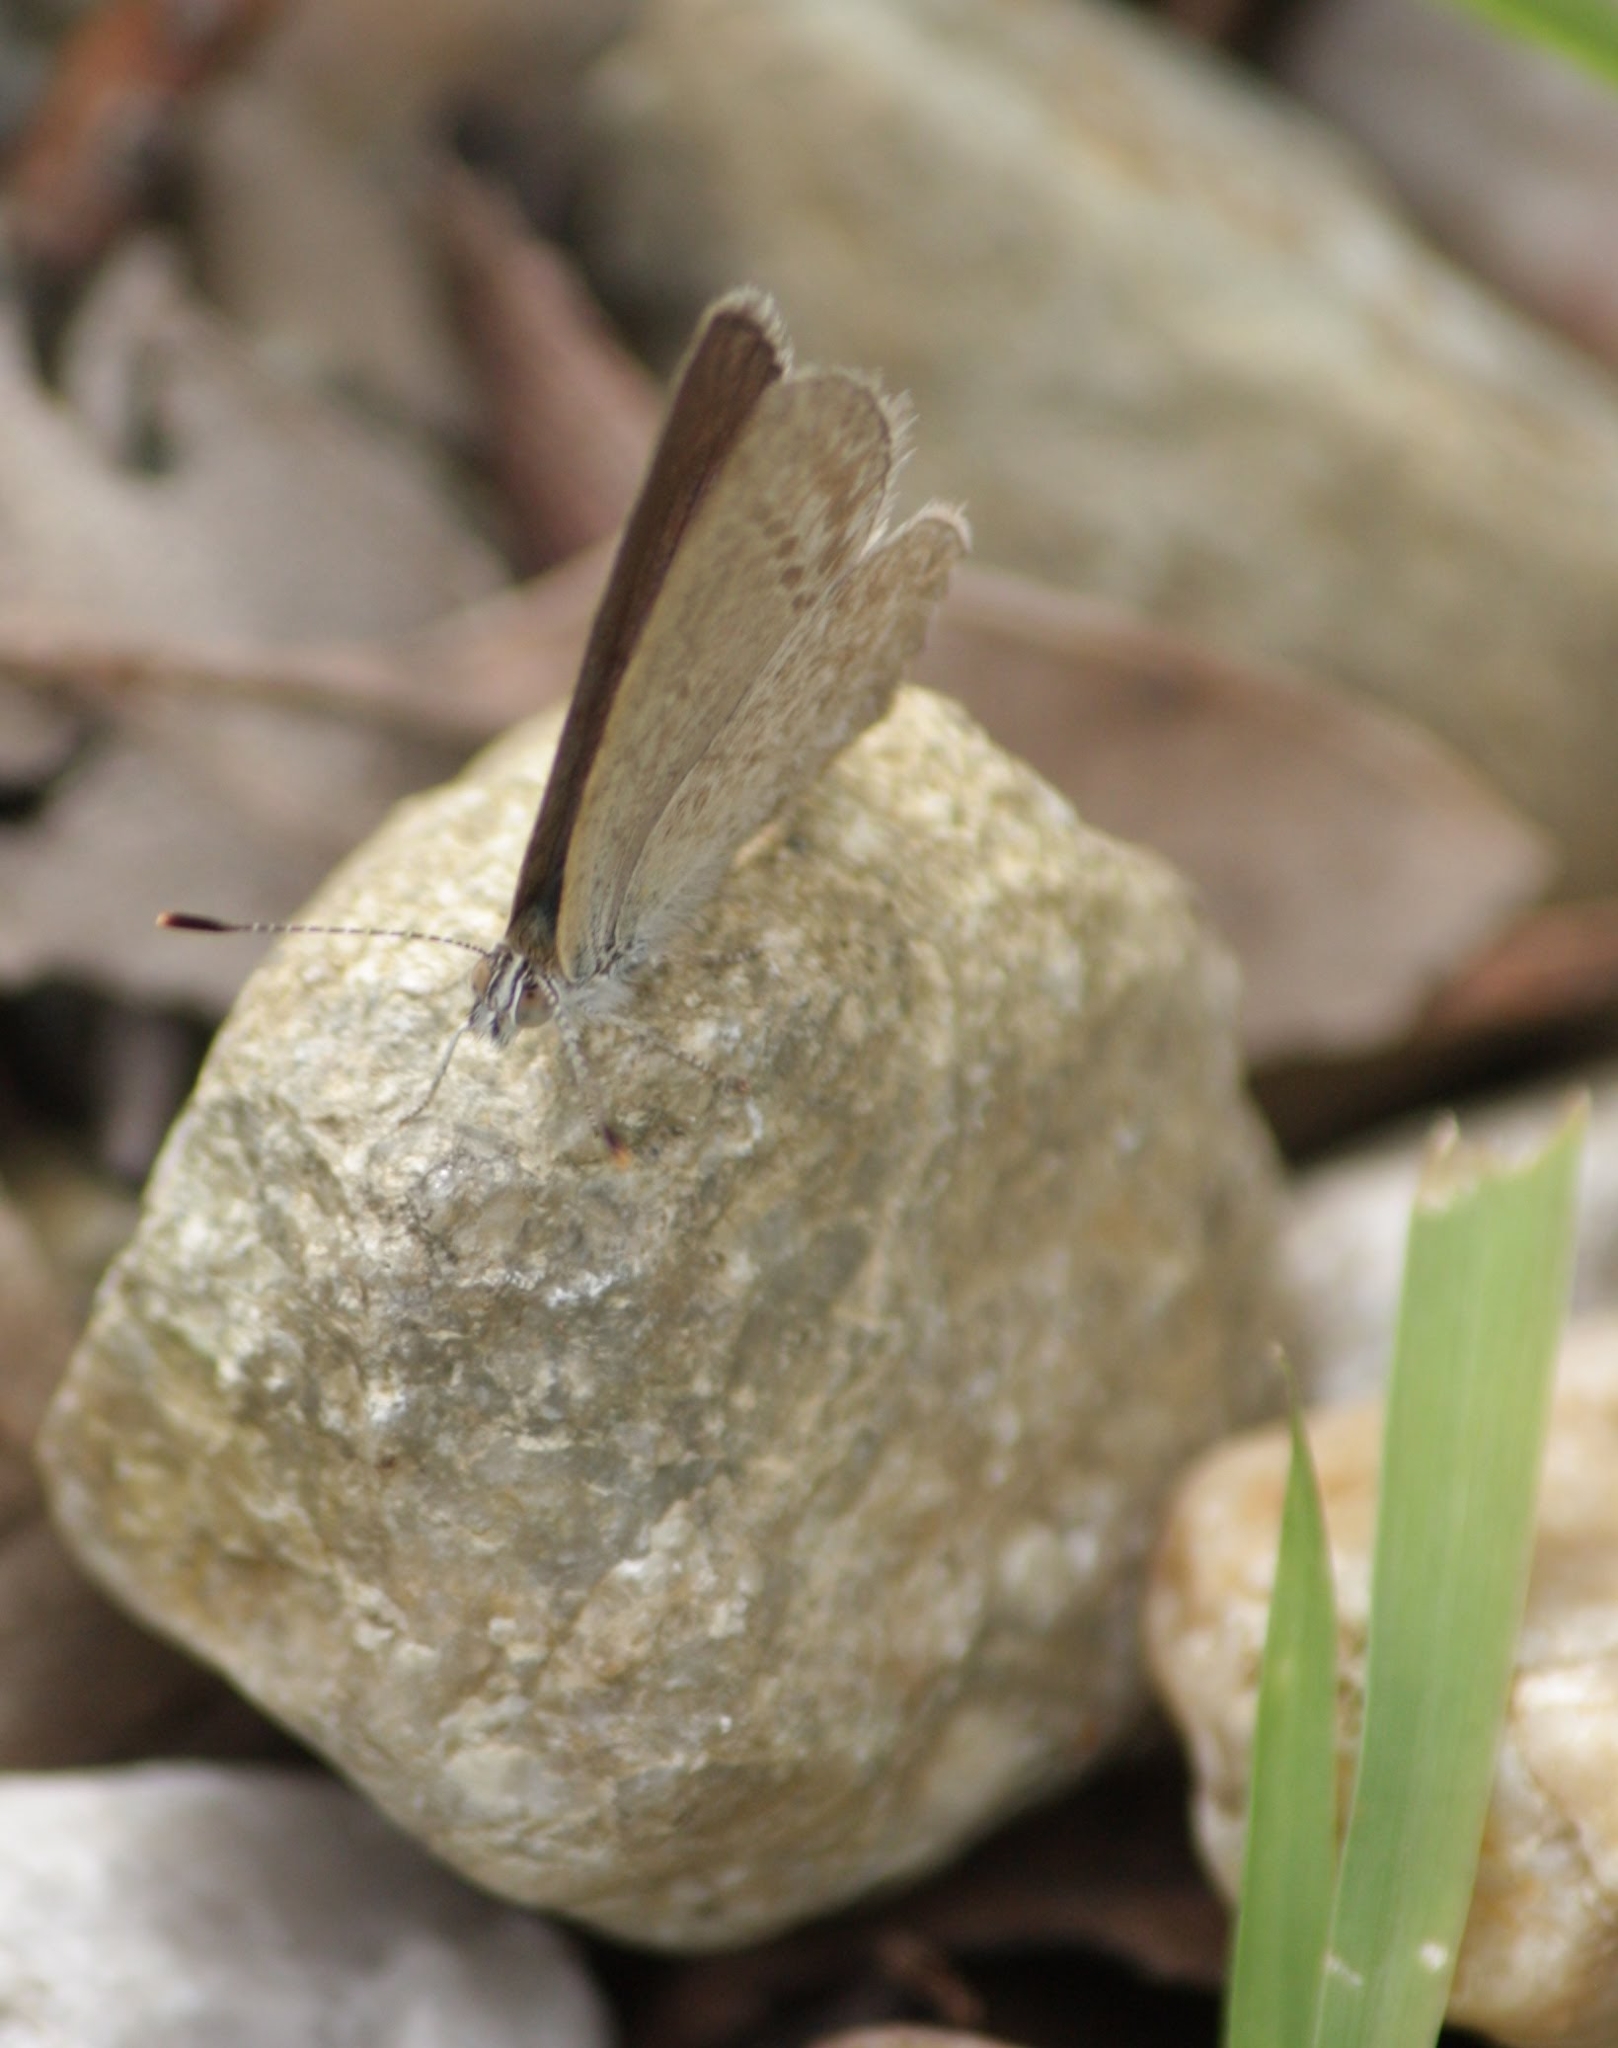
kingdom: Animalia
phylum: Arthropoda
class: Insecta
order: Lepidoptera
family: Lycaenidae
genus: Zizina
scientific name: Zizina labradus
